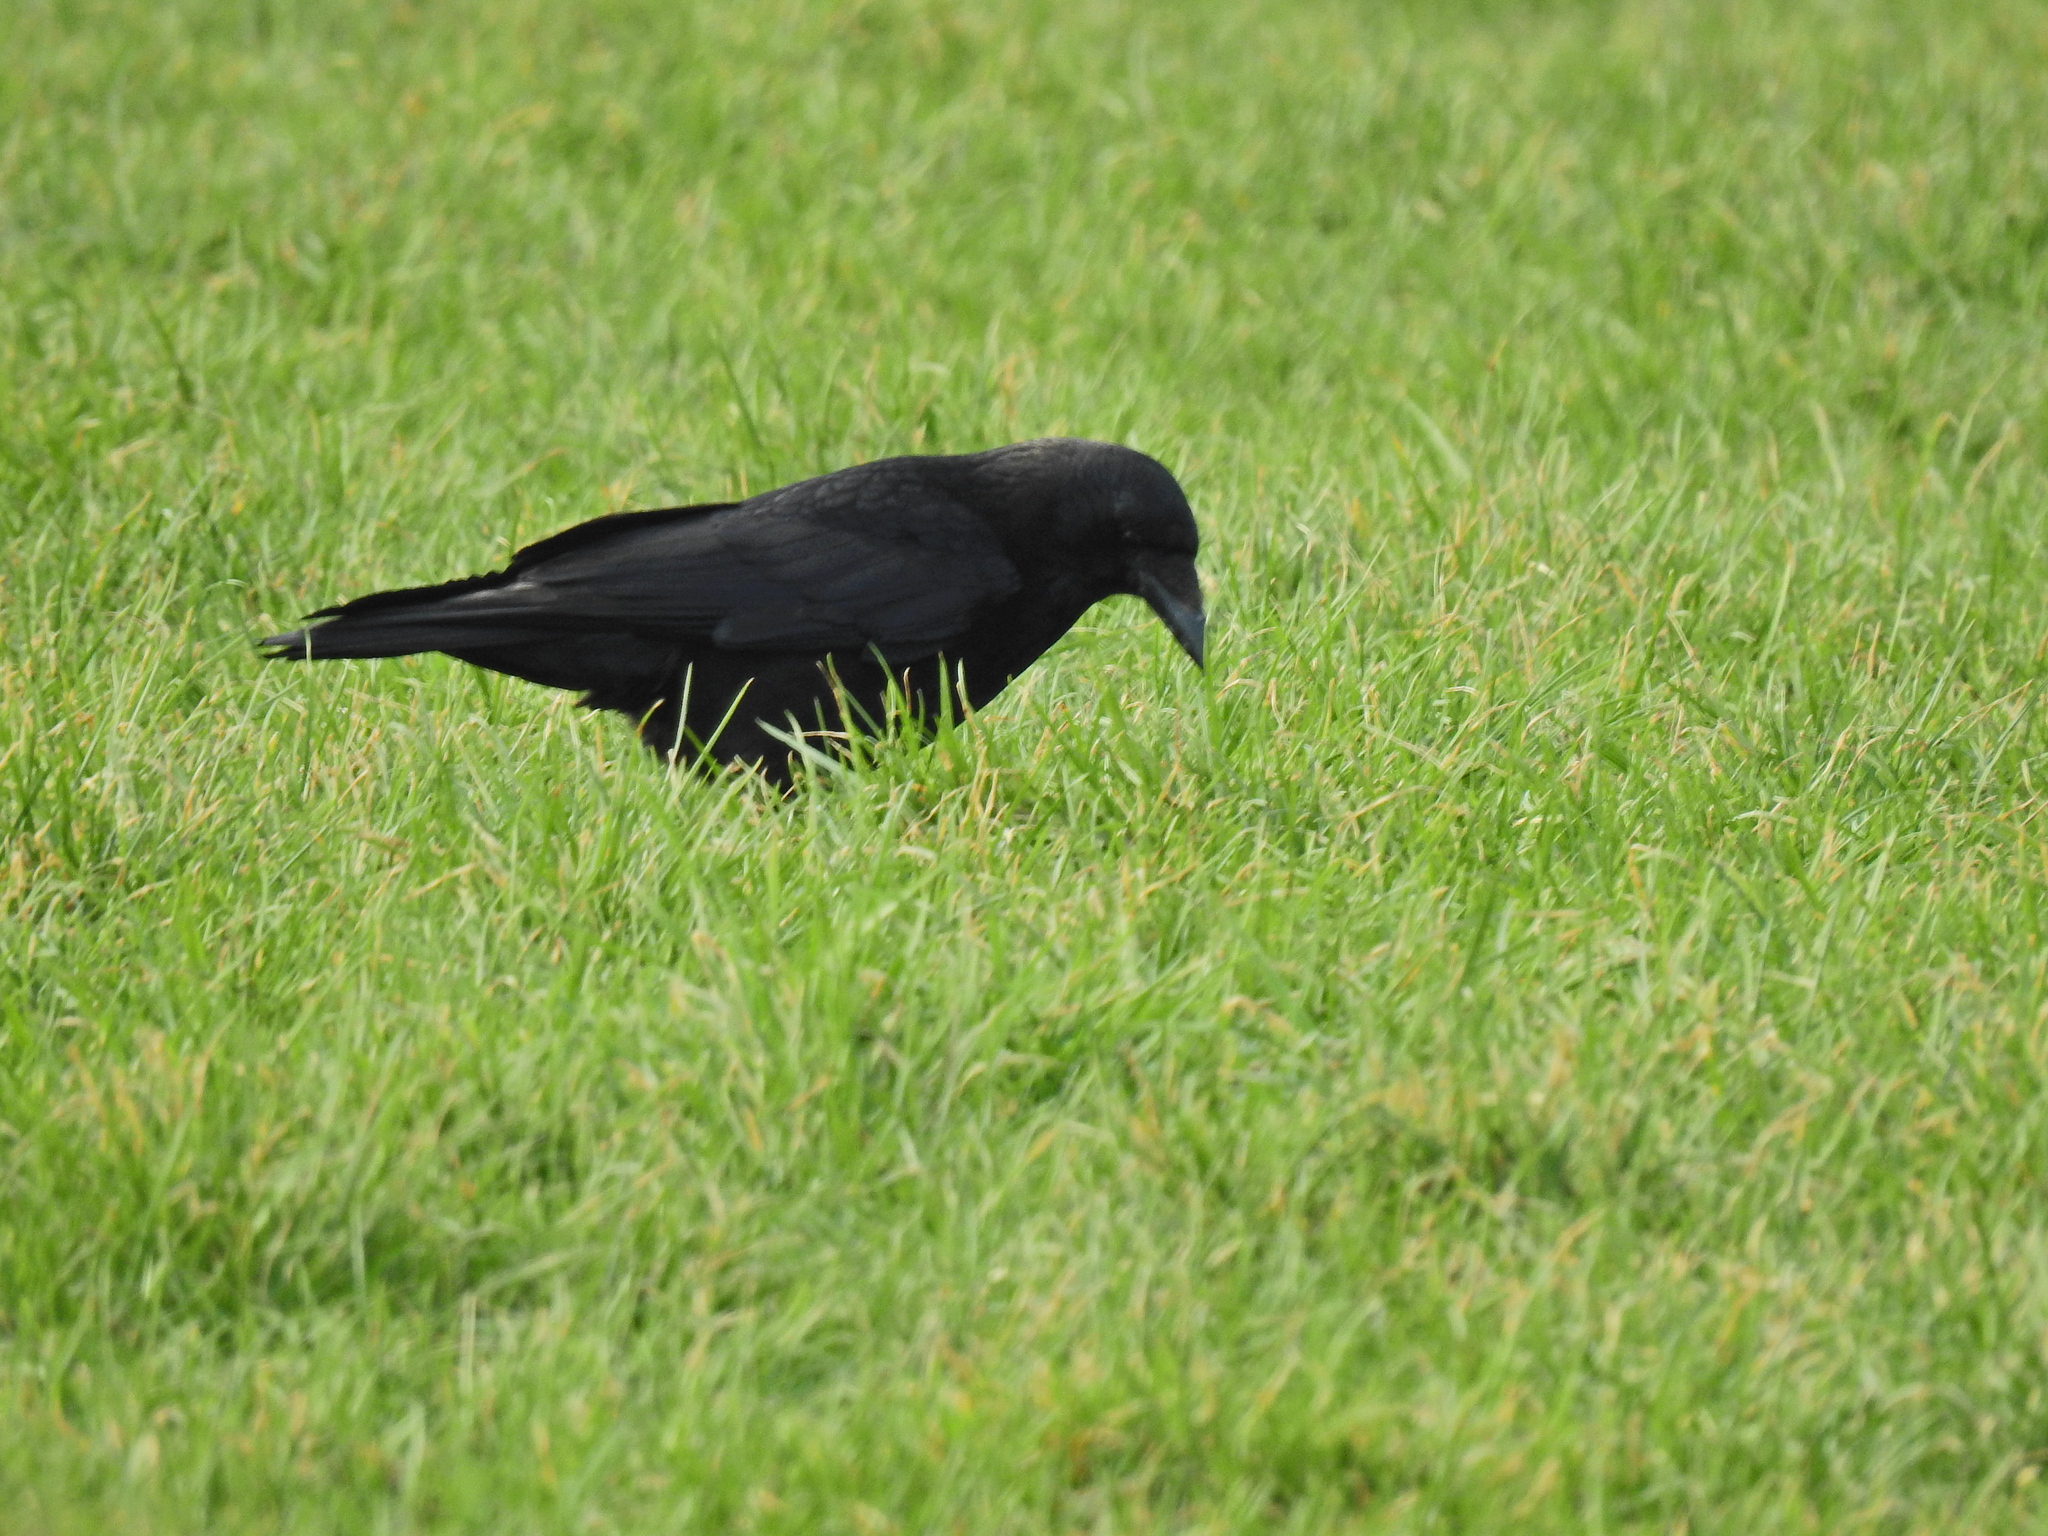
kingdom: Animalia
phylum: Chordata
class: Aves
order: Passeriformes
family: Corvidae
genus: Corvus
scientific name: Corvus corone
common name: Carrion crow
